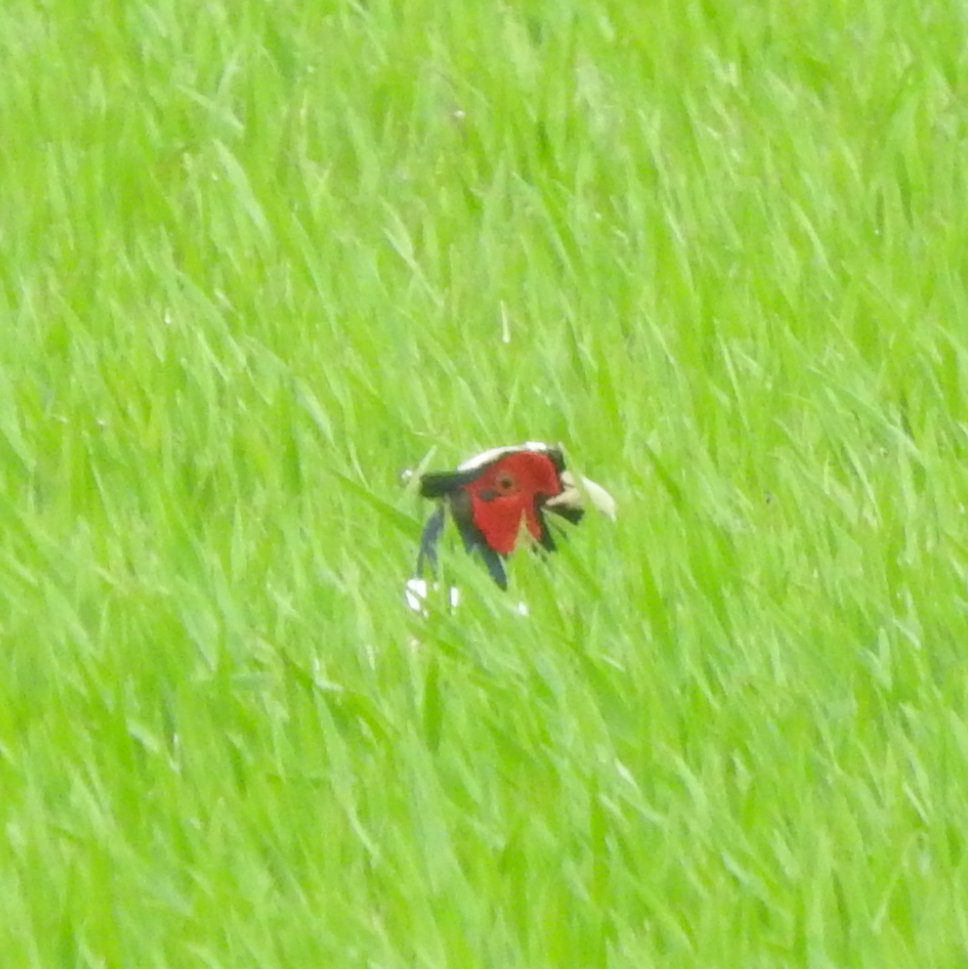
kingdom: Animalia
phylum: Chordata
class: Aves
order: Galliformes
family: Phasianidae
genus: Phasianus
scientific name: Phasianus colchicus
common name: Common pheasant
